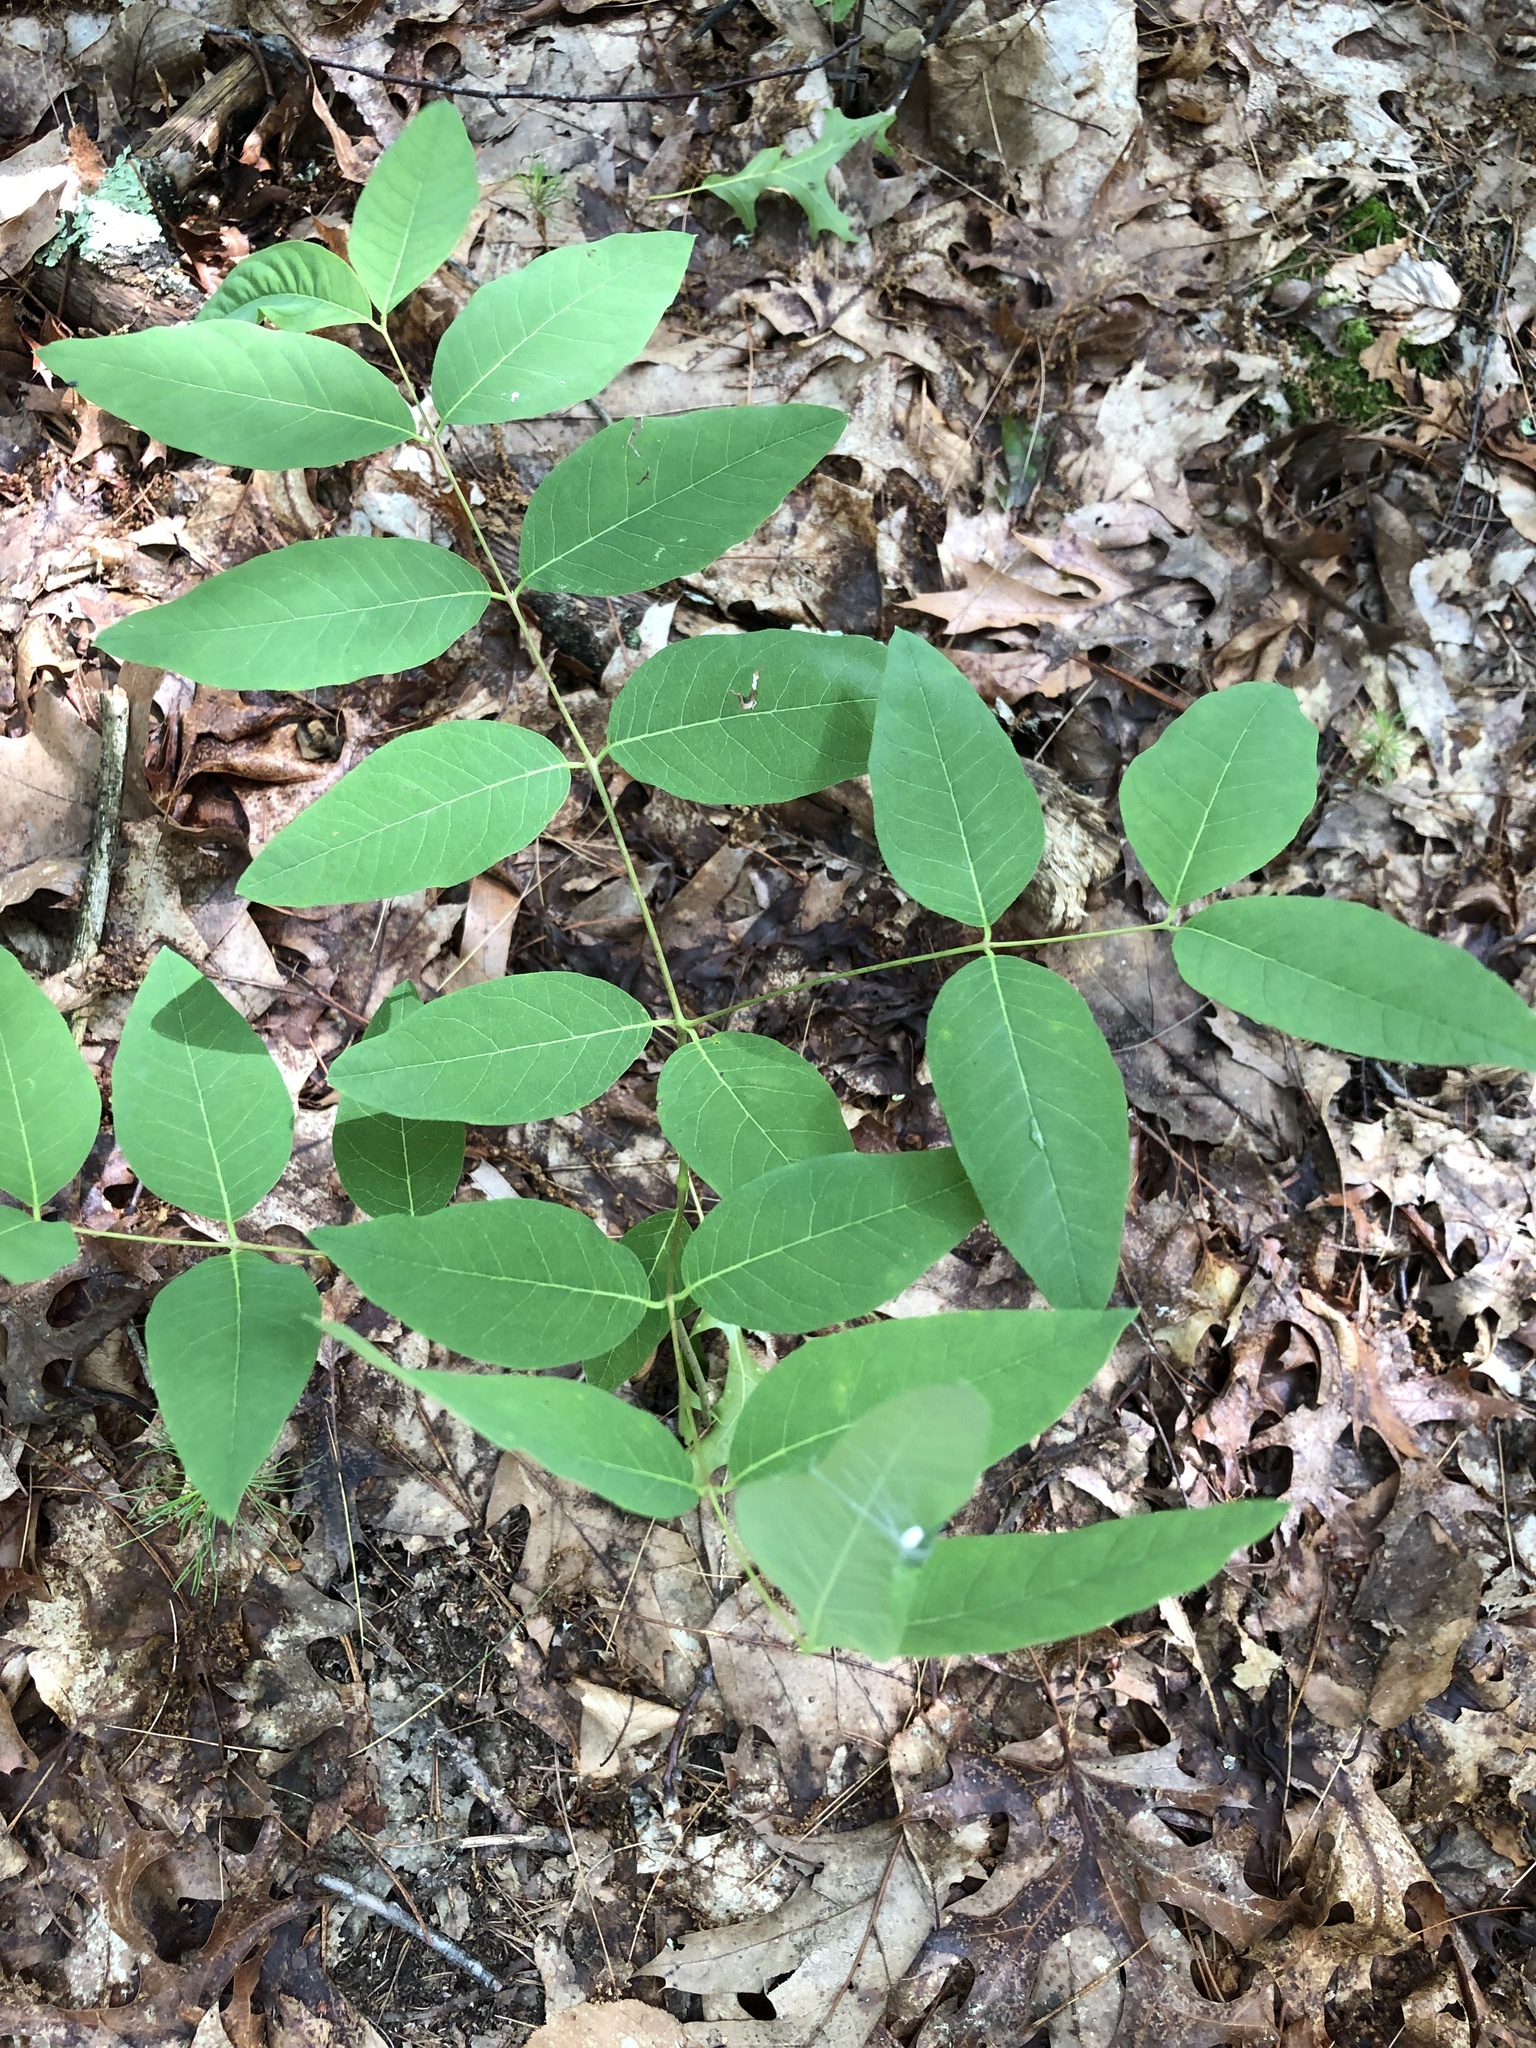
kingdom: Plantae
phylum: Tracheophyta
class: Magnoliopsida
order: Gentianales
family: Apocynaceae
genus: Apocynum
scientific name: Apocynum androsaemifolium
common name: Spreading dogbane
